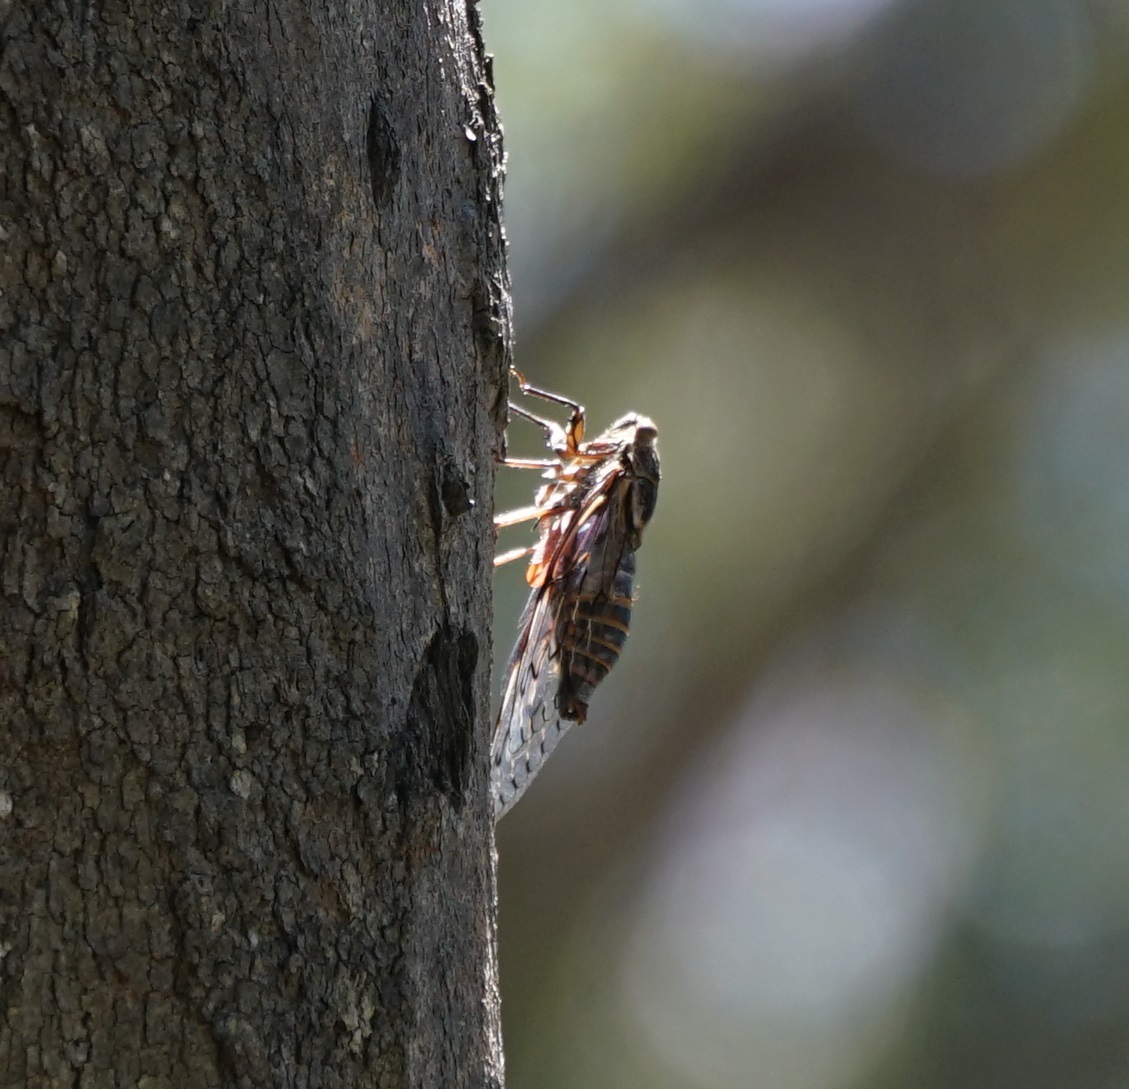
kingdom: Animalia
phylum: Arthropoda
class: Insecta
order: Hemiptera
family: Cicadidae
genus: Henicopsaltria
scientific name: Henicopsaltria eydouxii
